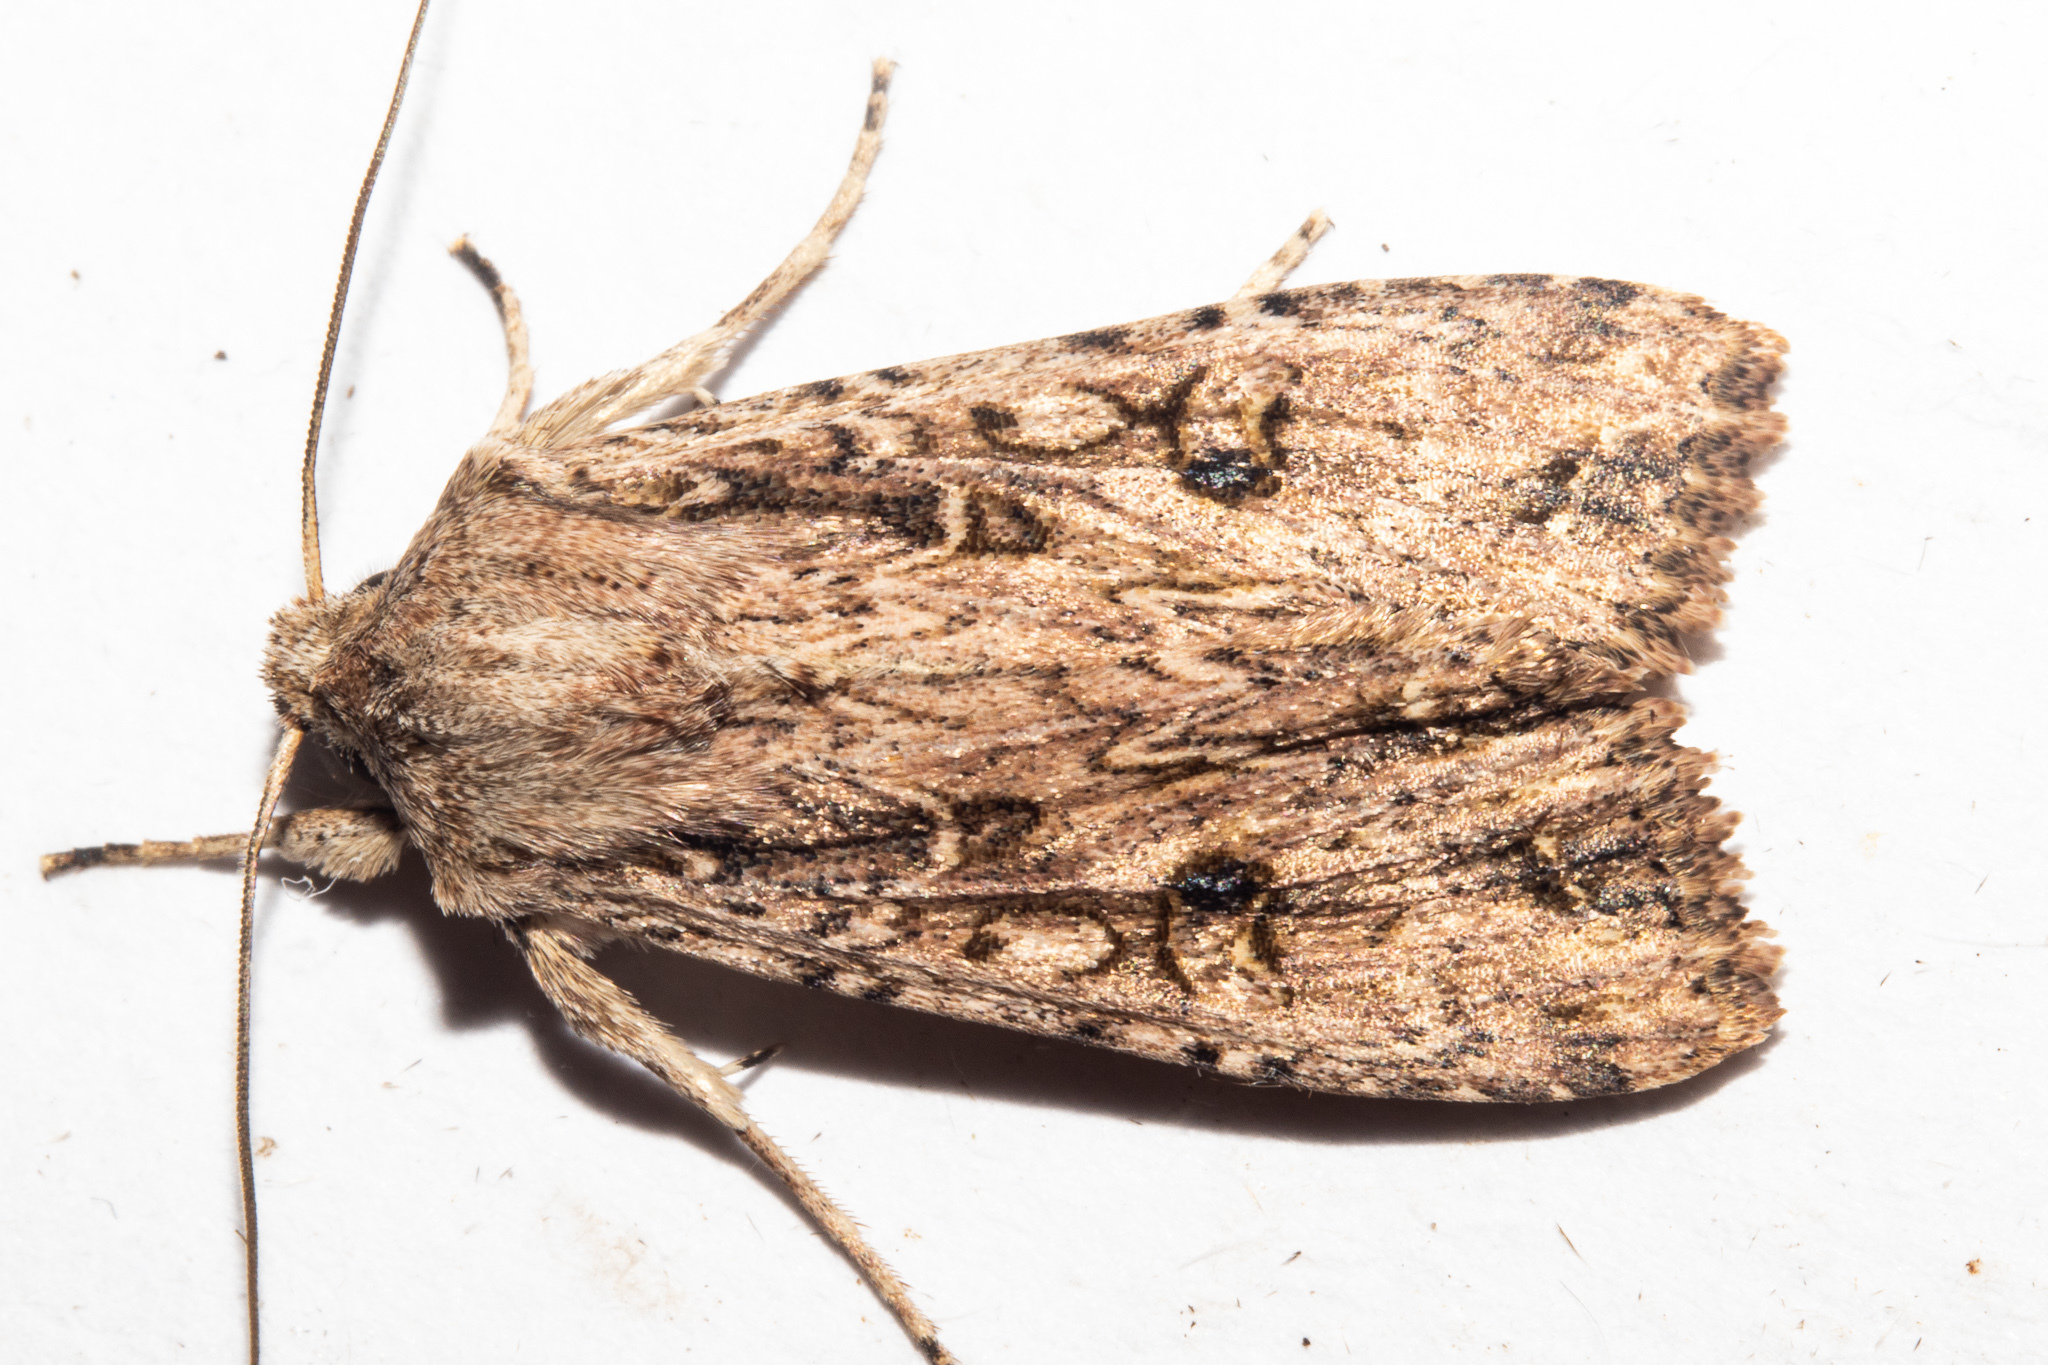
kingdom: Animalia
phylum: Arthropoda
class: Insecta
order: Lepidoptera
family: Noctuidae
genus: Ichneutica
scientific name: Ichneutica lignana
